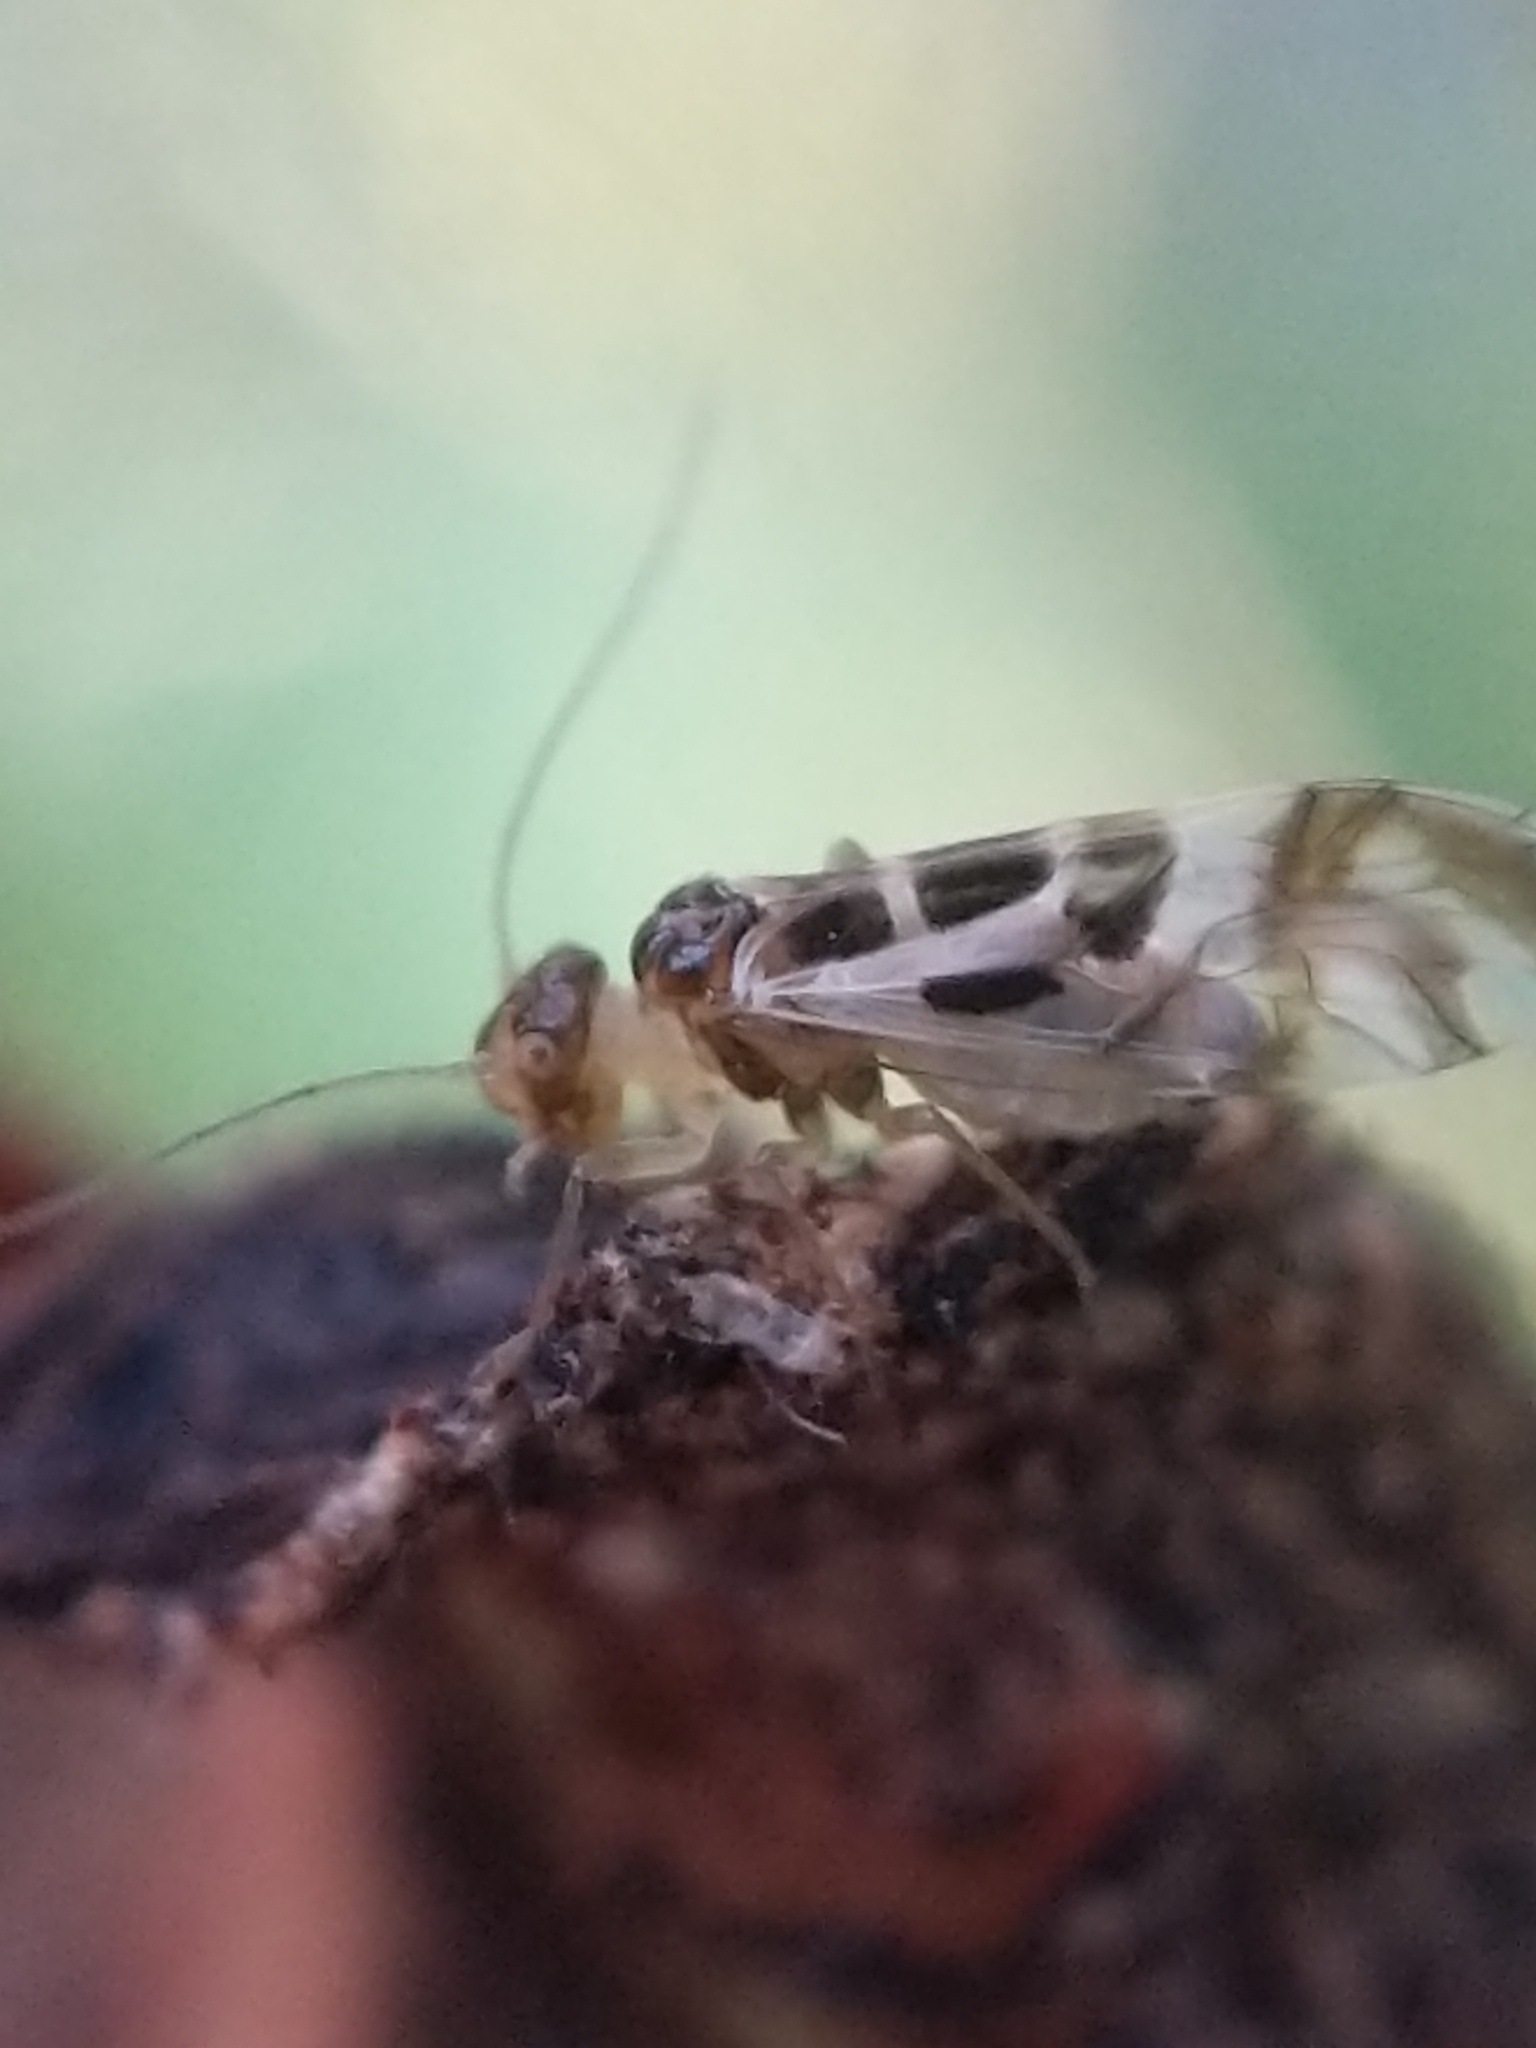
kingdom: Animalia
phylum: Arthropoda
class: Insecta
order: Psocodea
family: Stenopsocidae
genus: Graphopsocus
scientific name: Graphopsocus cruciatus
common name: Lizard bark louse
